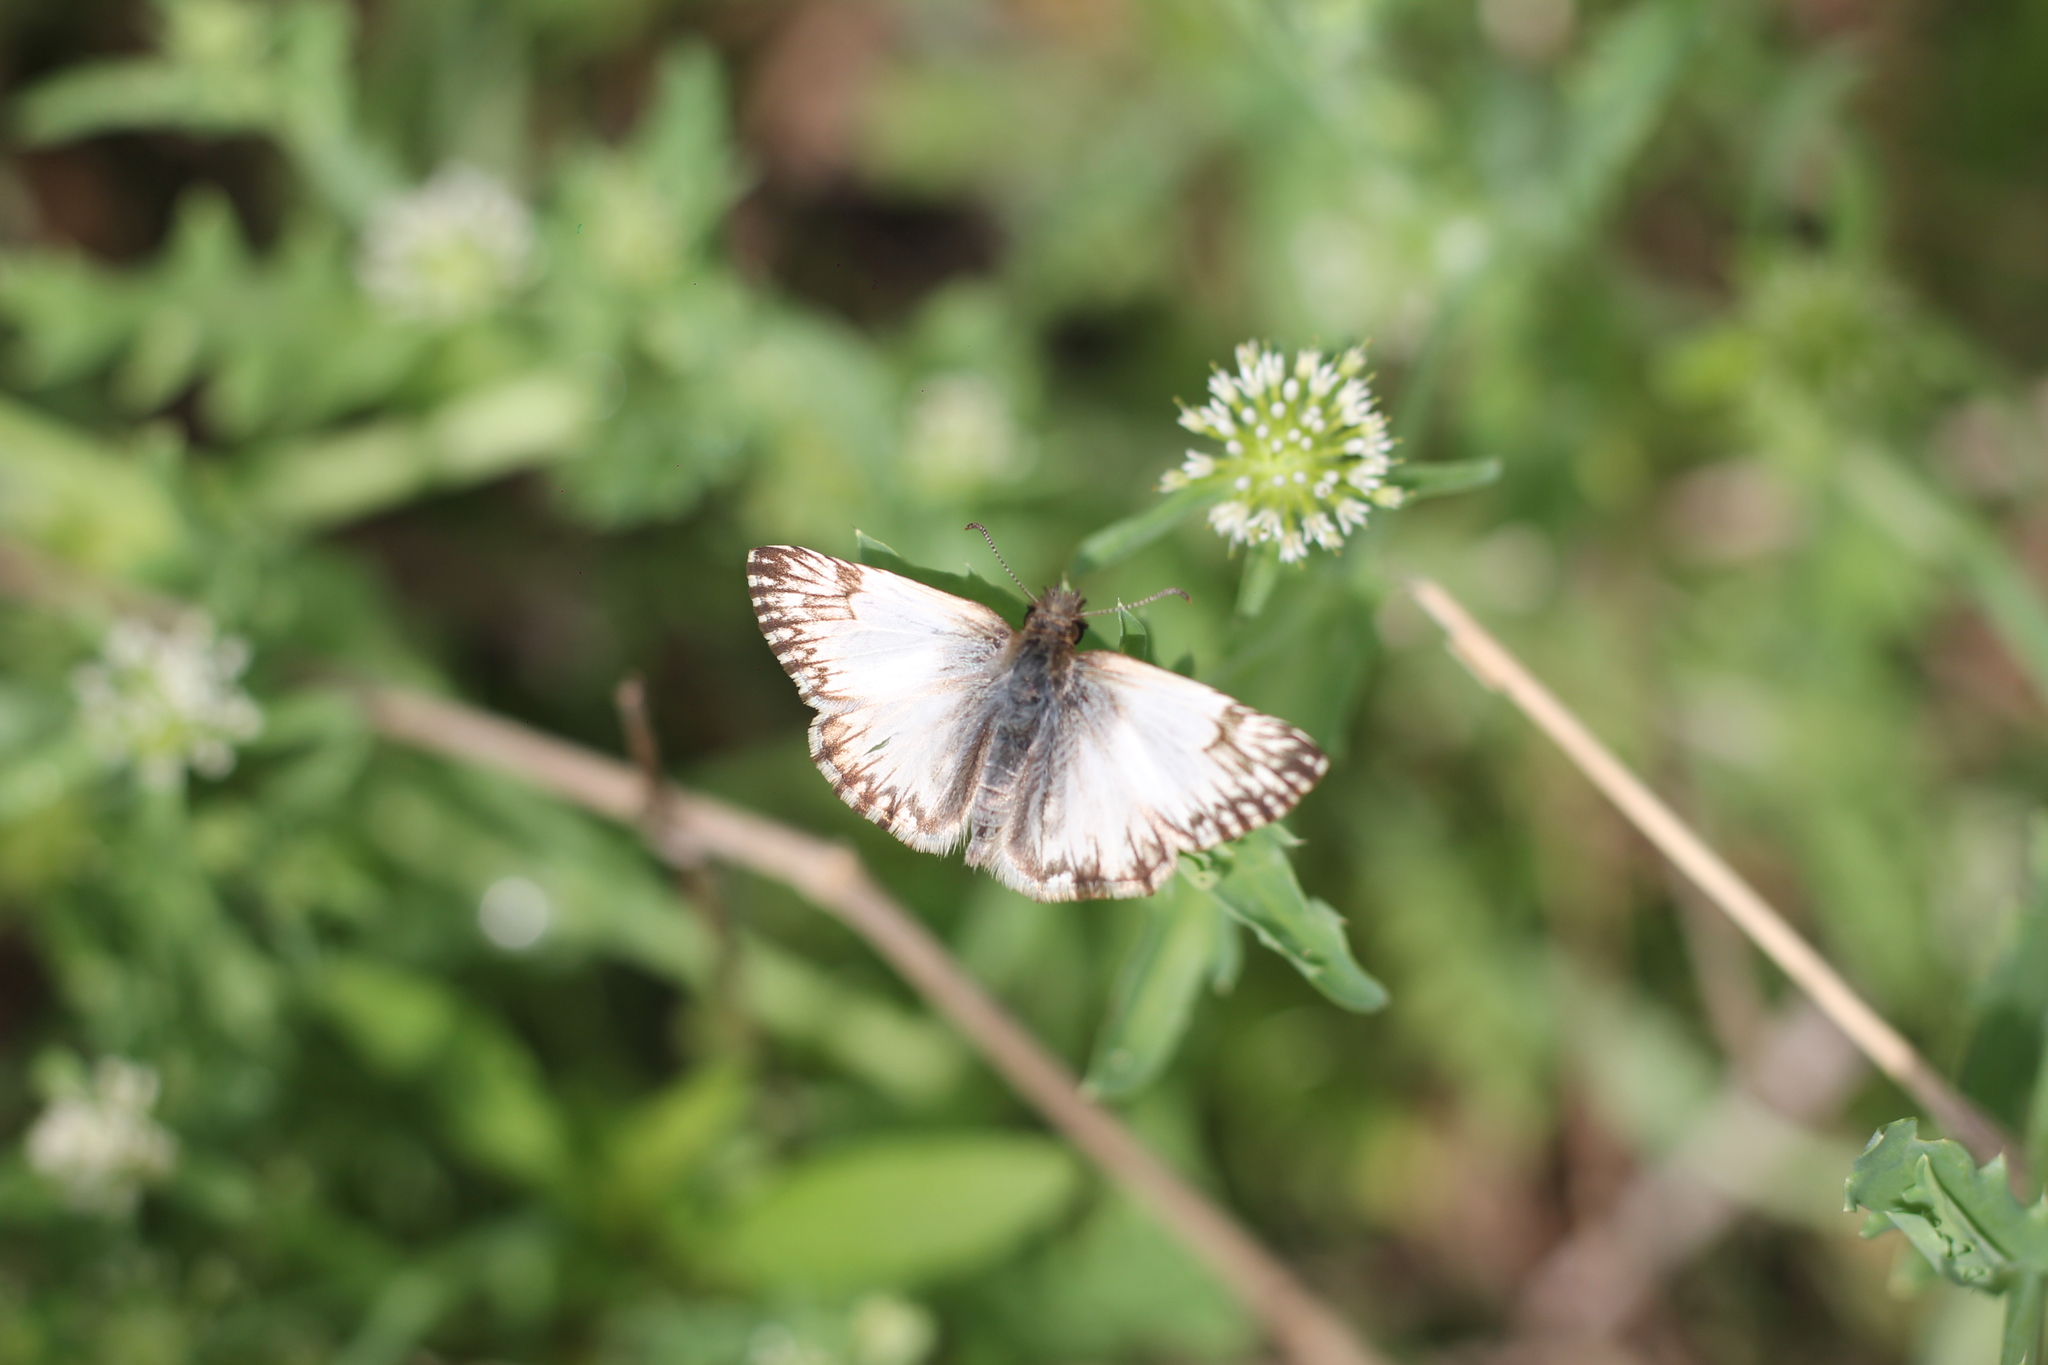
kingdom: Animalia
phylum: Arthropoda
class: Insecta
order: Lepidoptera
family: Hesperiidae
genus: Heliopetes
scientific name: Heliopetes omrina
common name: Stained white-skipper
